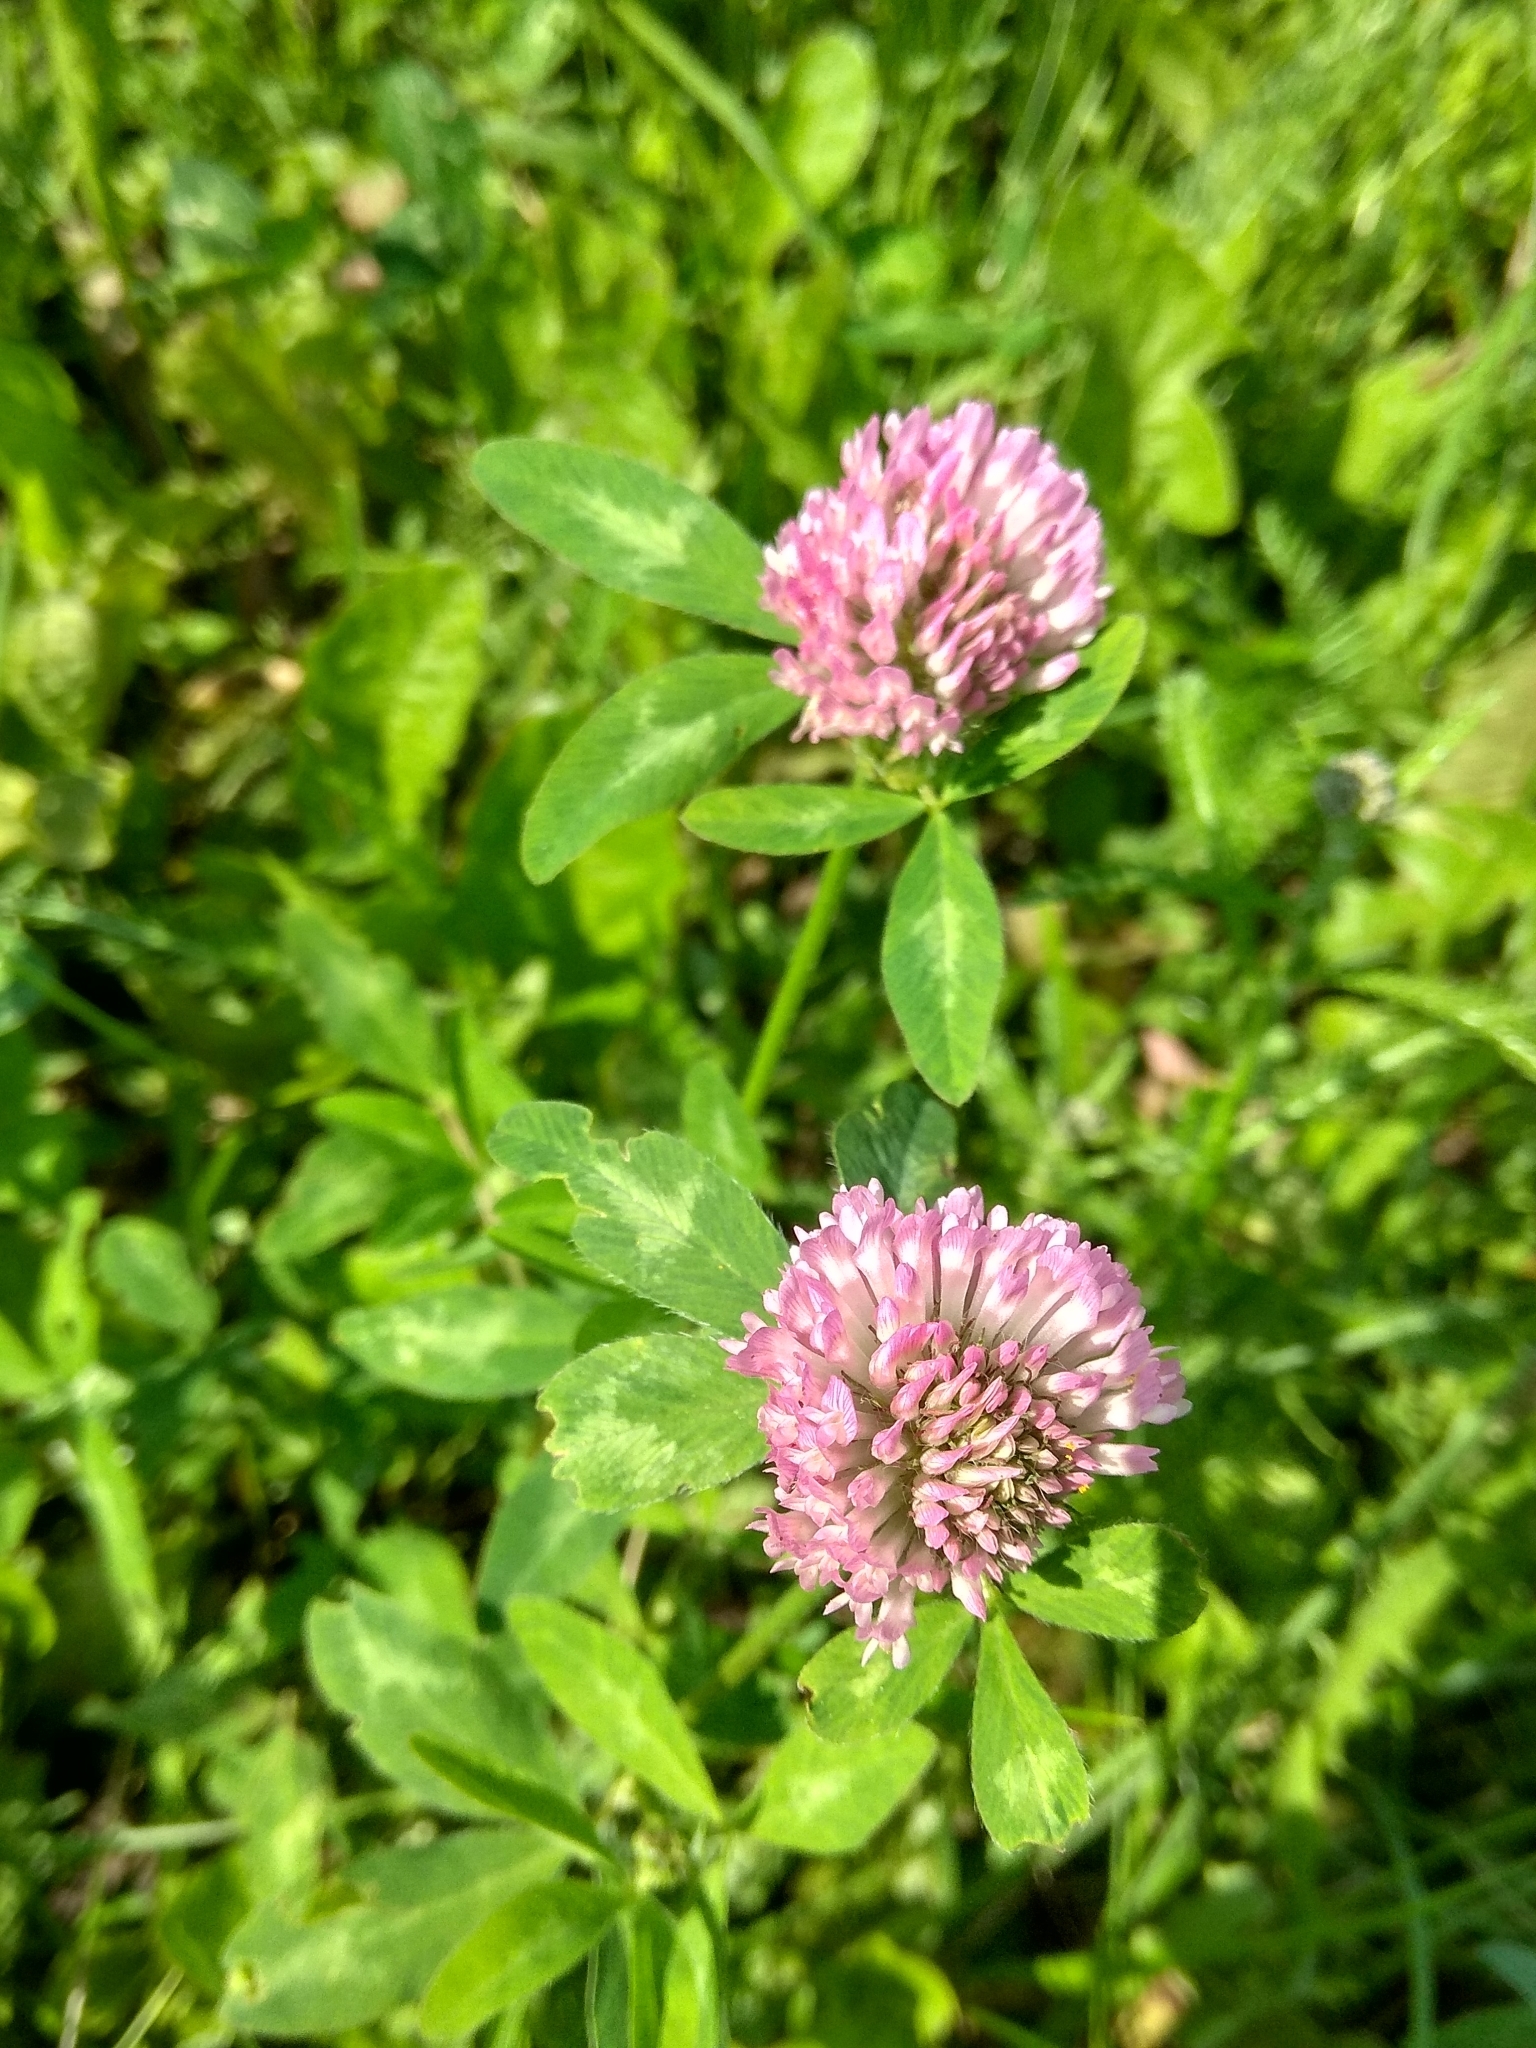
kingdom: Plantae
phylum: Tracheophyta
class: Magnoliopsida
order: Fabales
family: Fabaceae
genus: Trifolium
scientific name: Trifolium pratense
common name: Red clover
